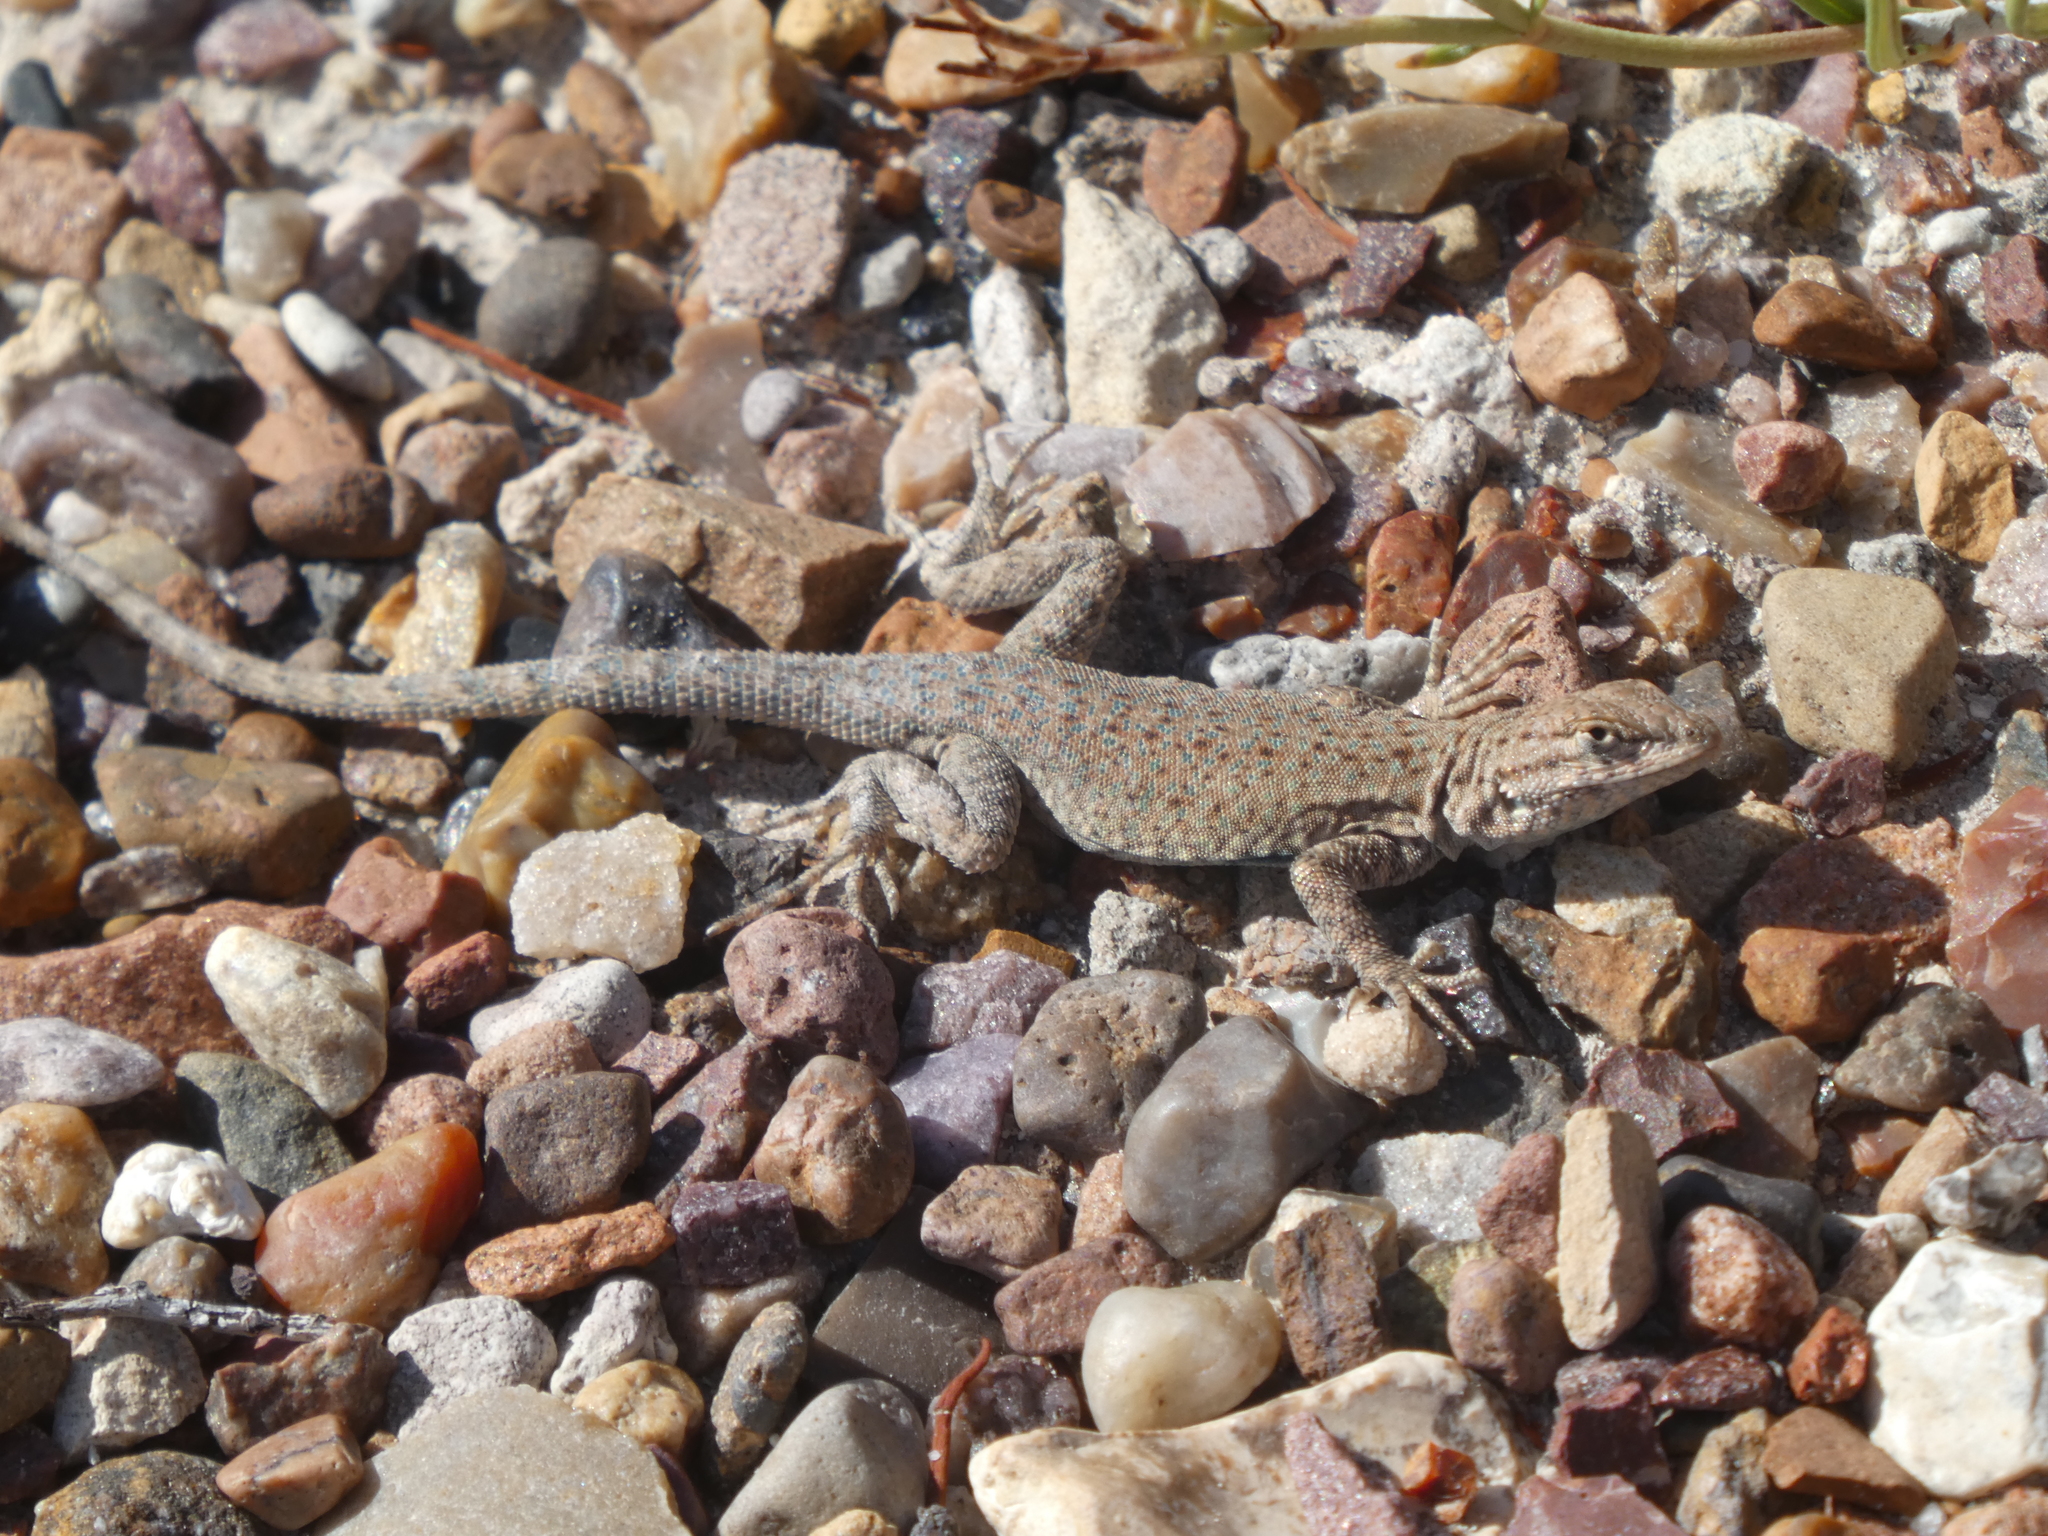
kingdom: Animalia
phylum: Chordata
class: Squamata
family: Phrynosomatidae
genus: Uta
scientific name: Uta stansburiana
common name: Side-blotched lizard
